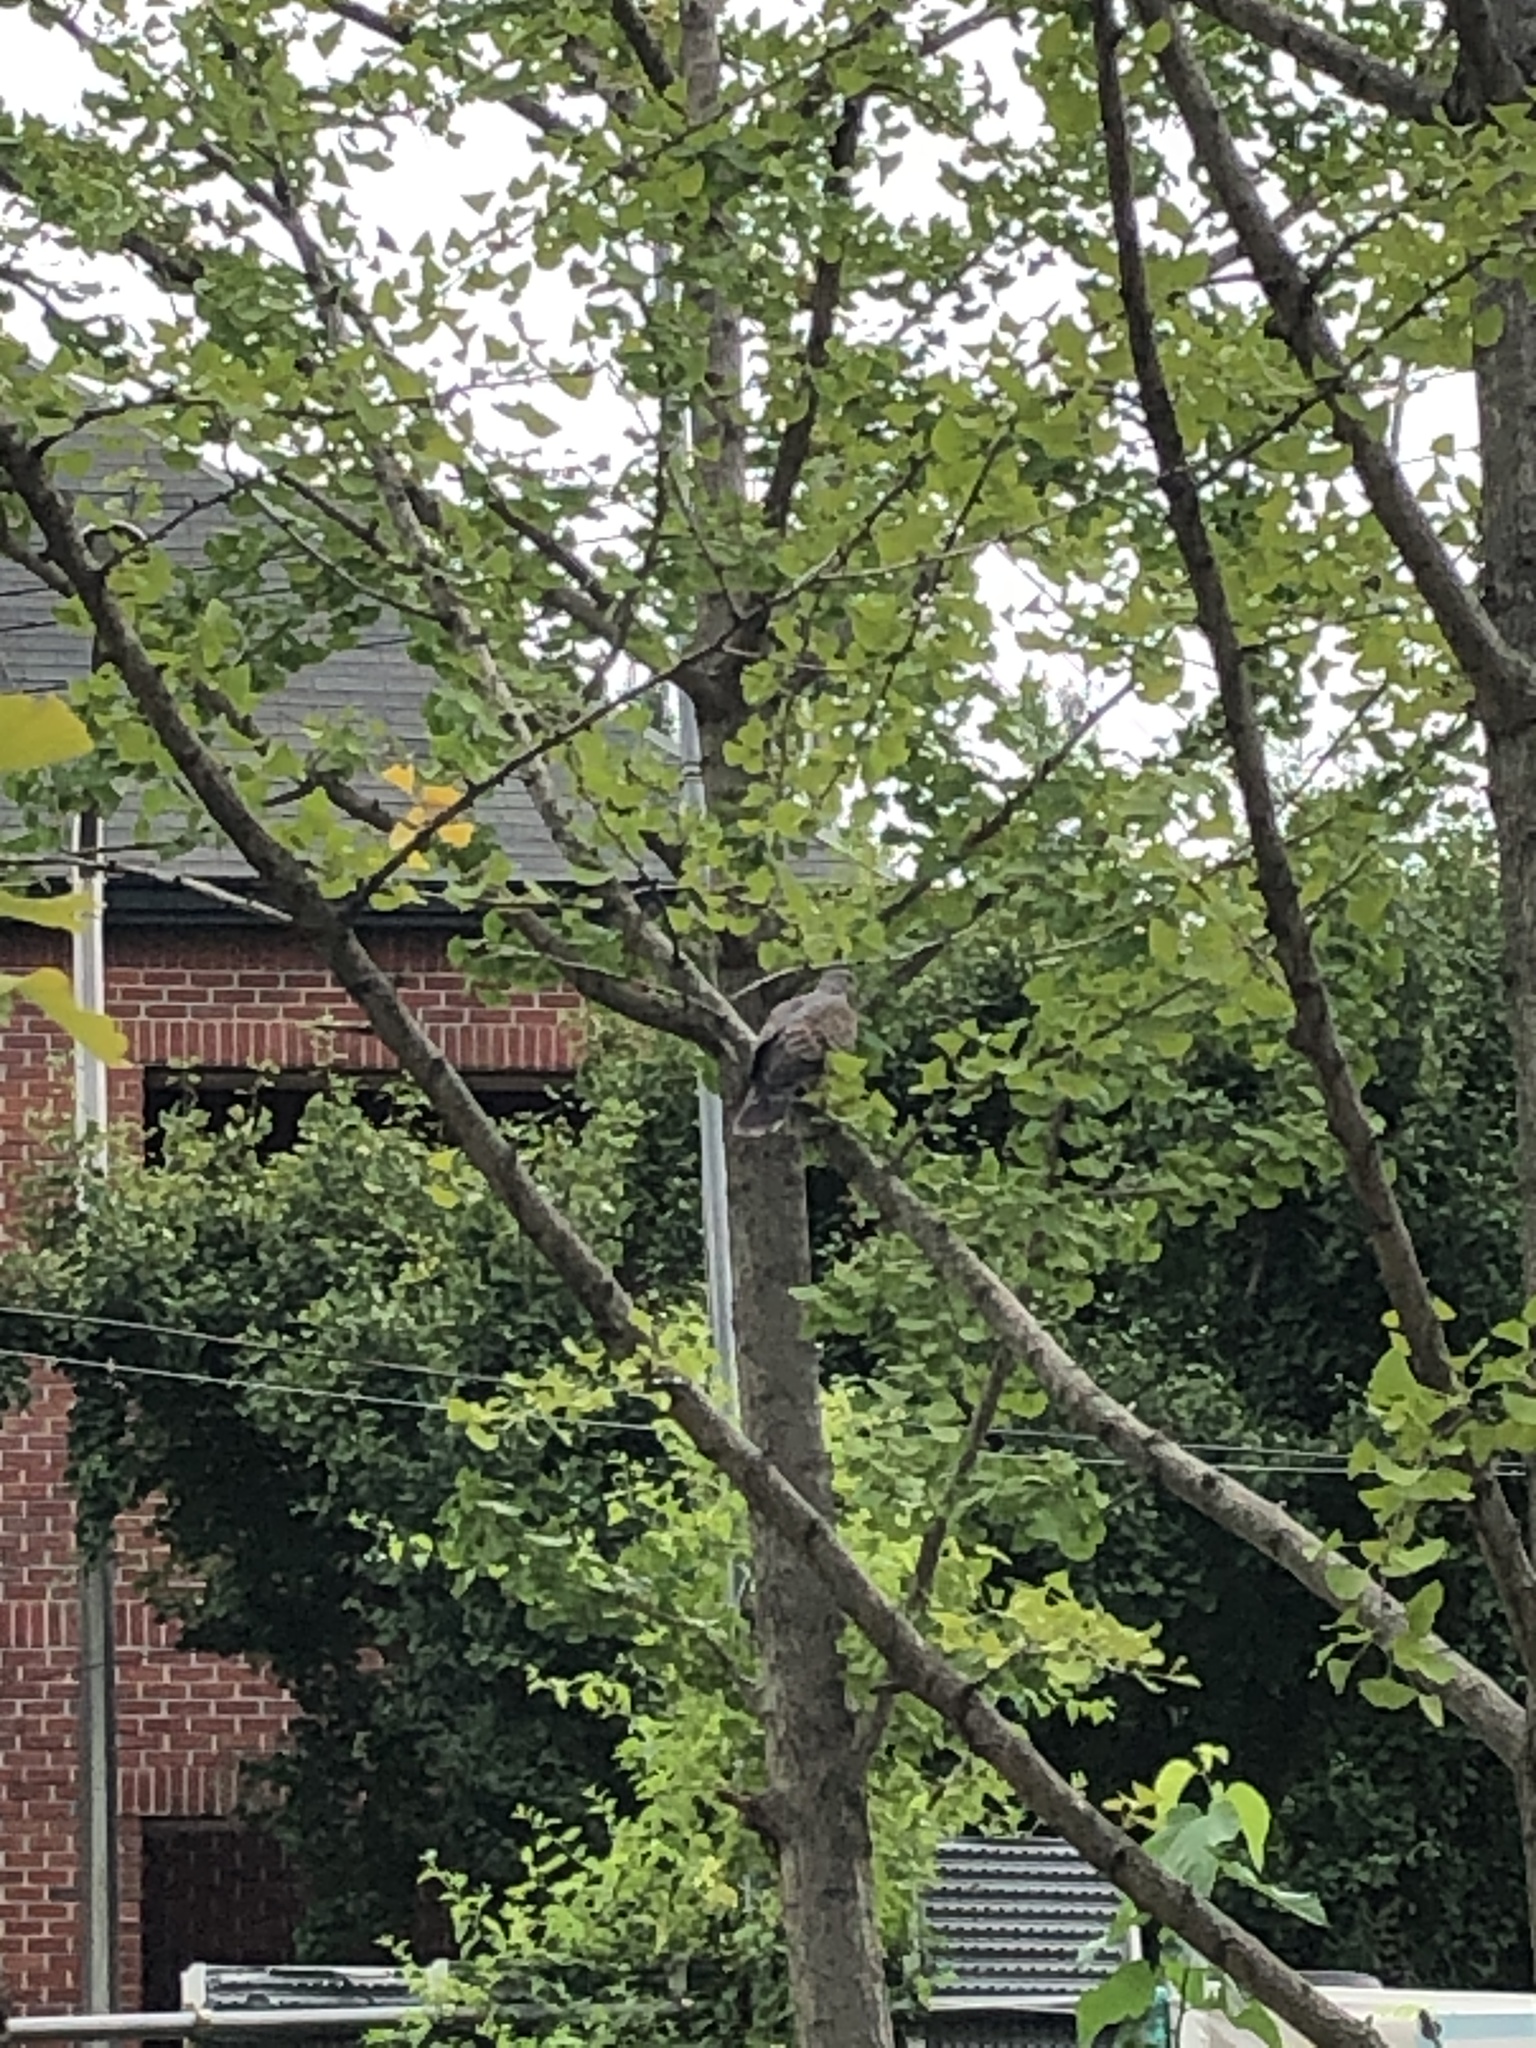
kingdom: Animalia
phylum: Chordata
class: Aves
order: Columbiformes
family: Columbidae
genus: Streptopelia
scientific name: Streptopelia orientalis
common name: Oriental turtle dove
